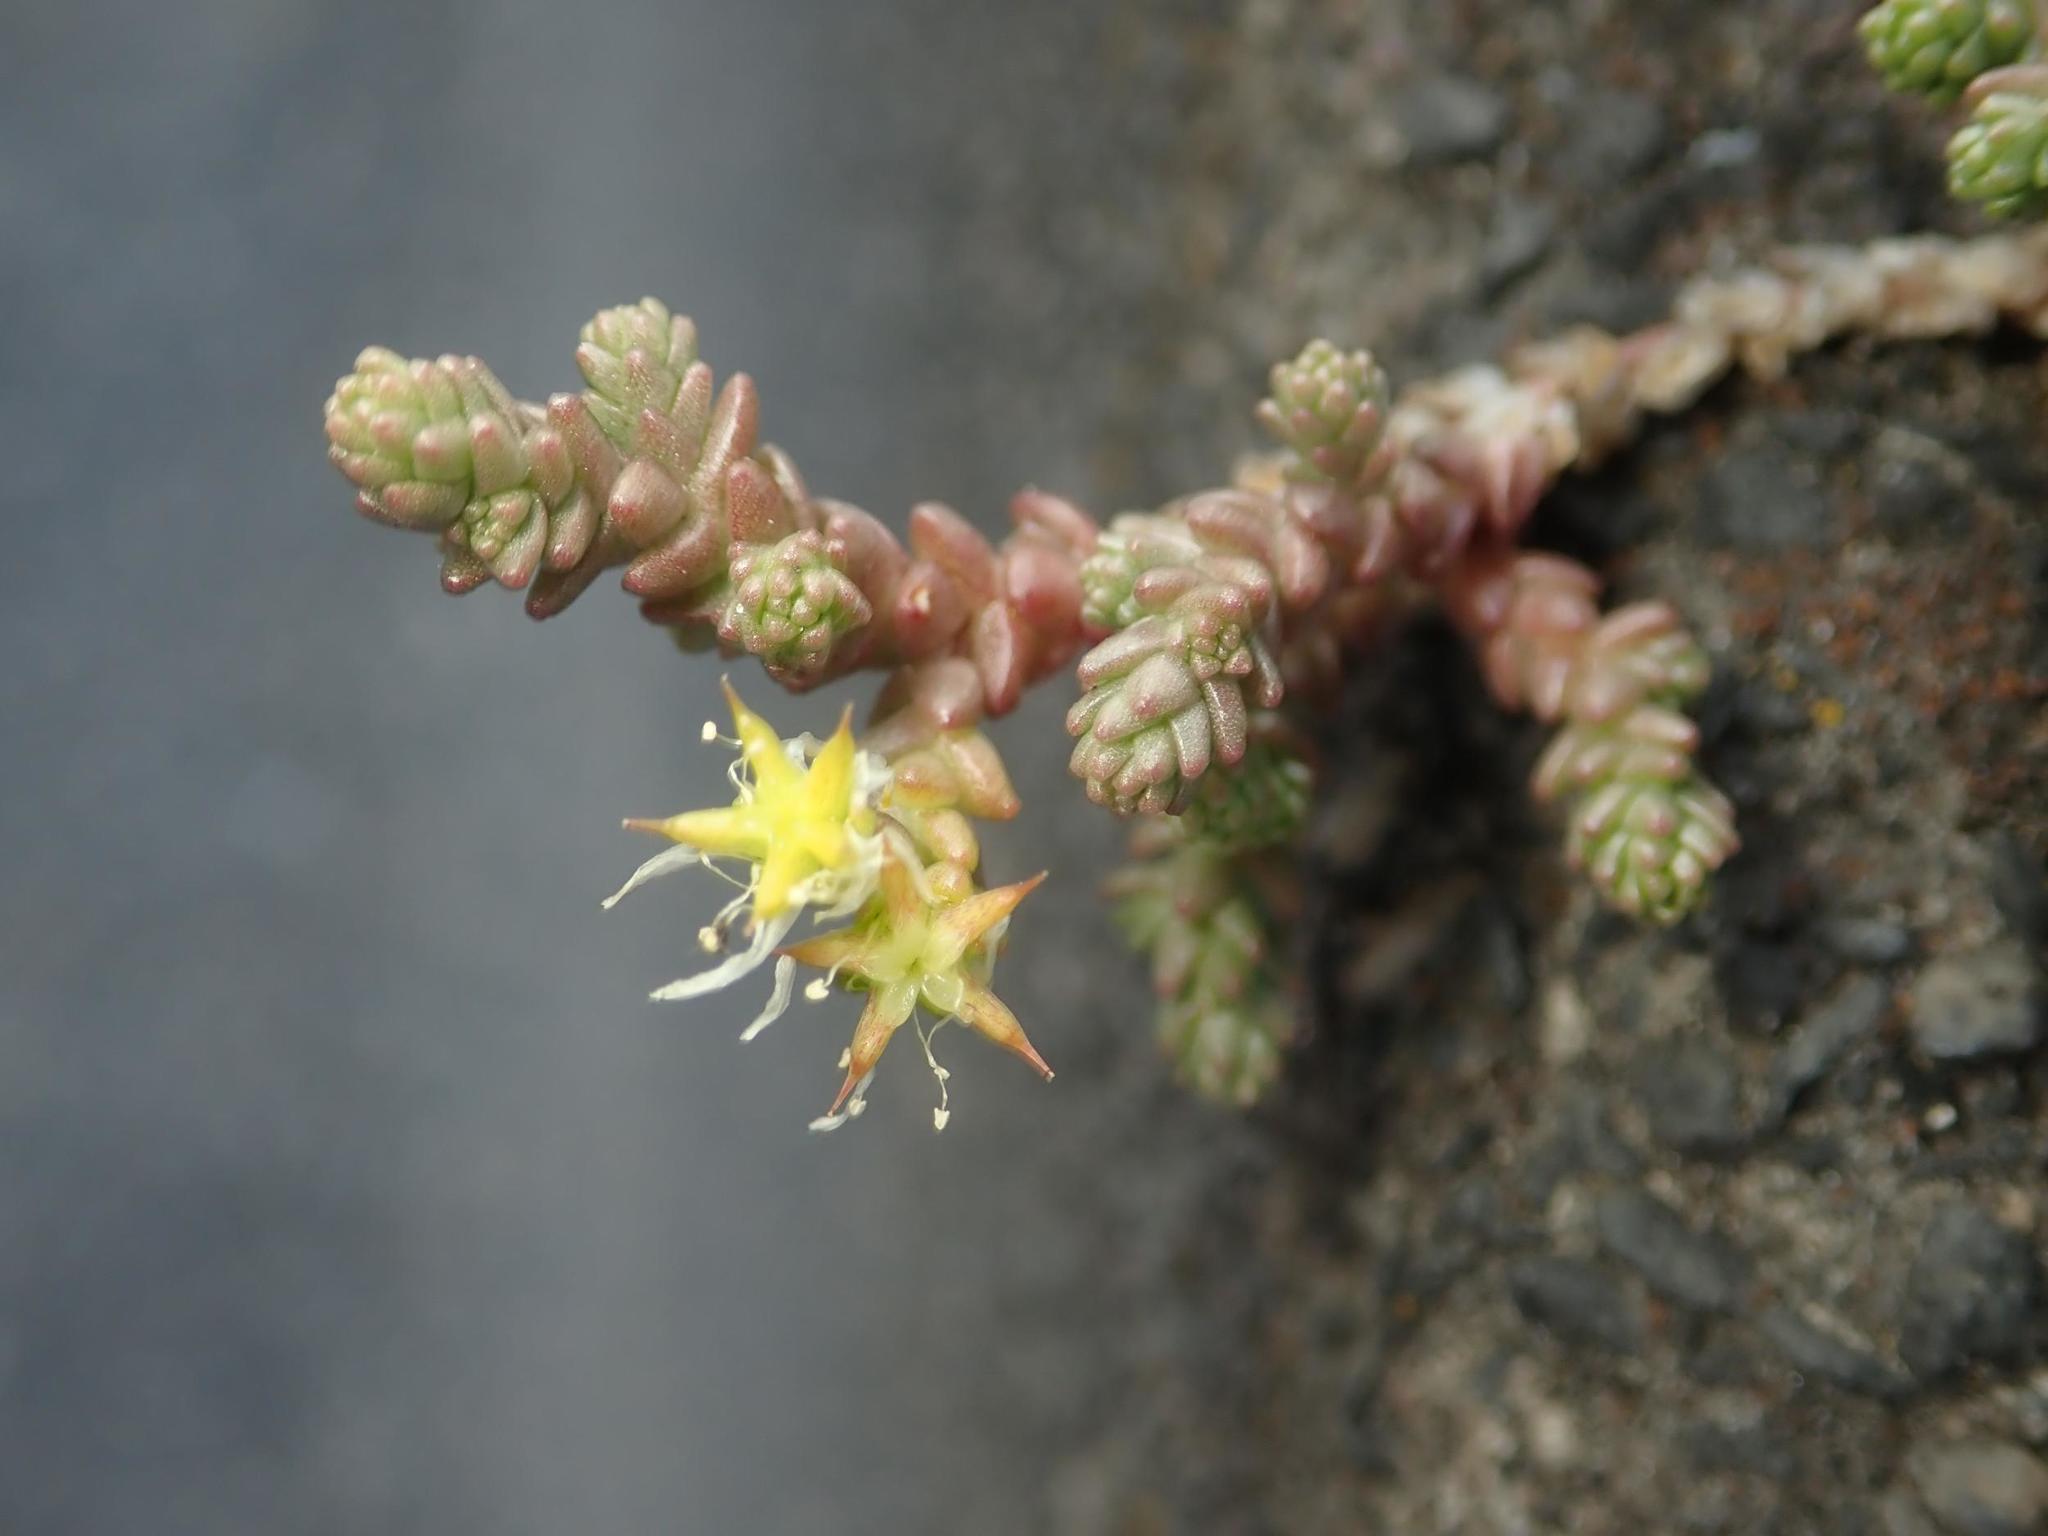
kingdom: Plantae
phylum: Tracheophyta
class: Magnoliopsida
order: Saxifragales
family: Crassulaceae
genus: Sedum
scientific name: Sedum acre
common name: Biting stonecrop
